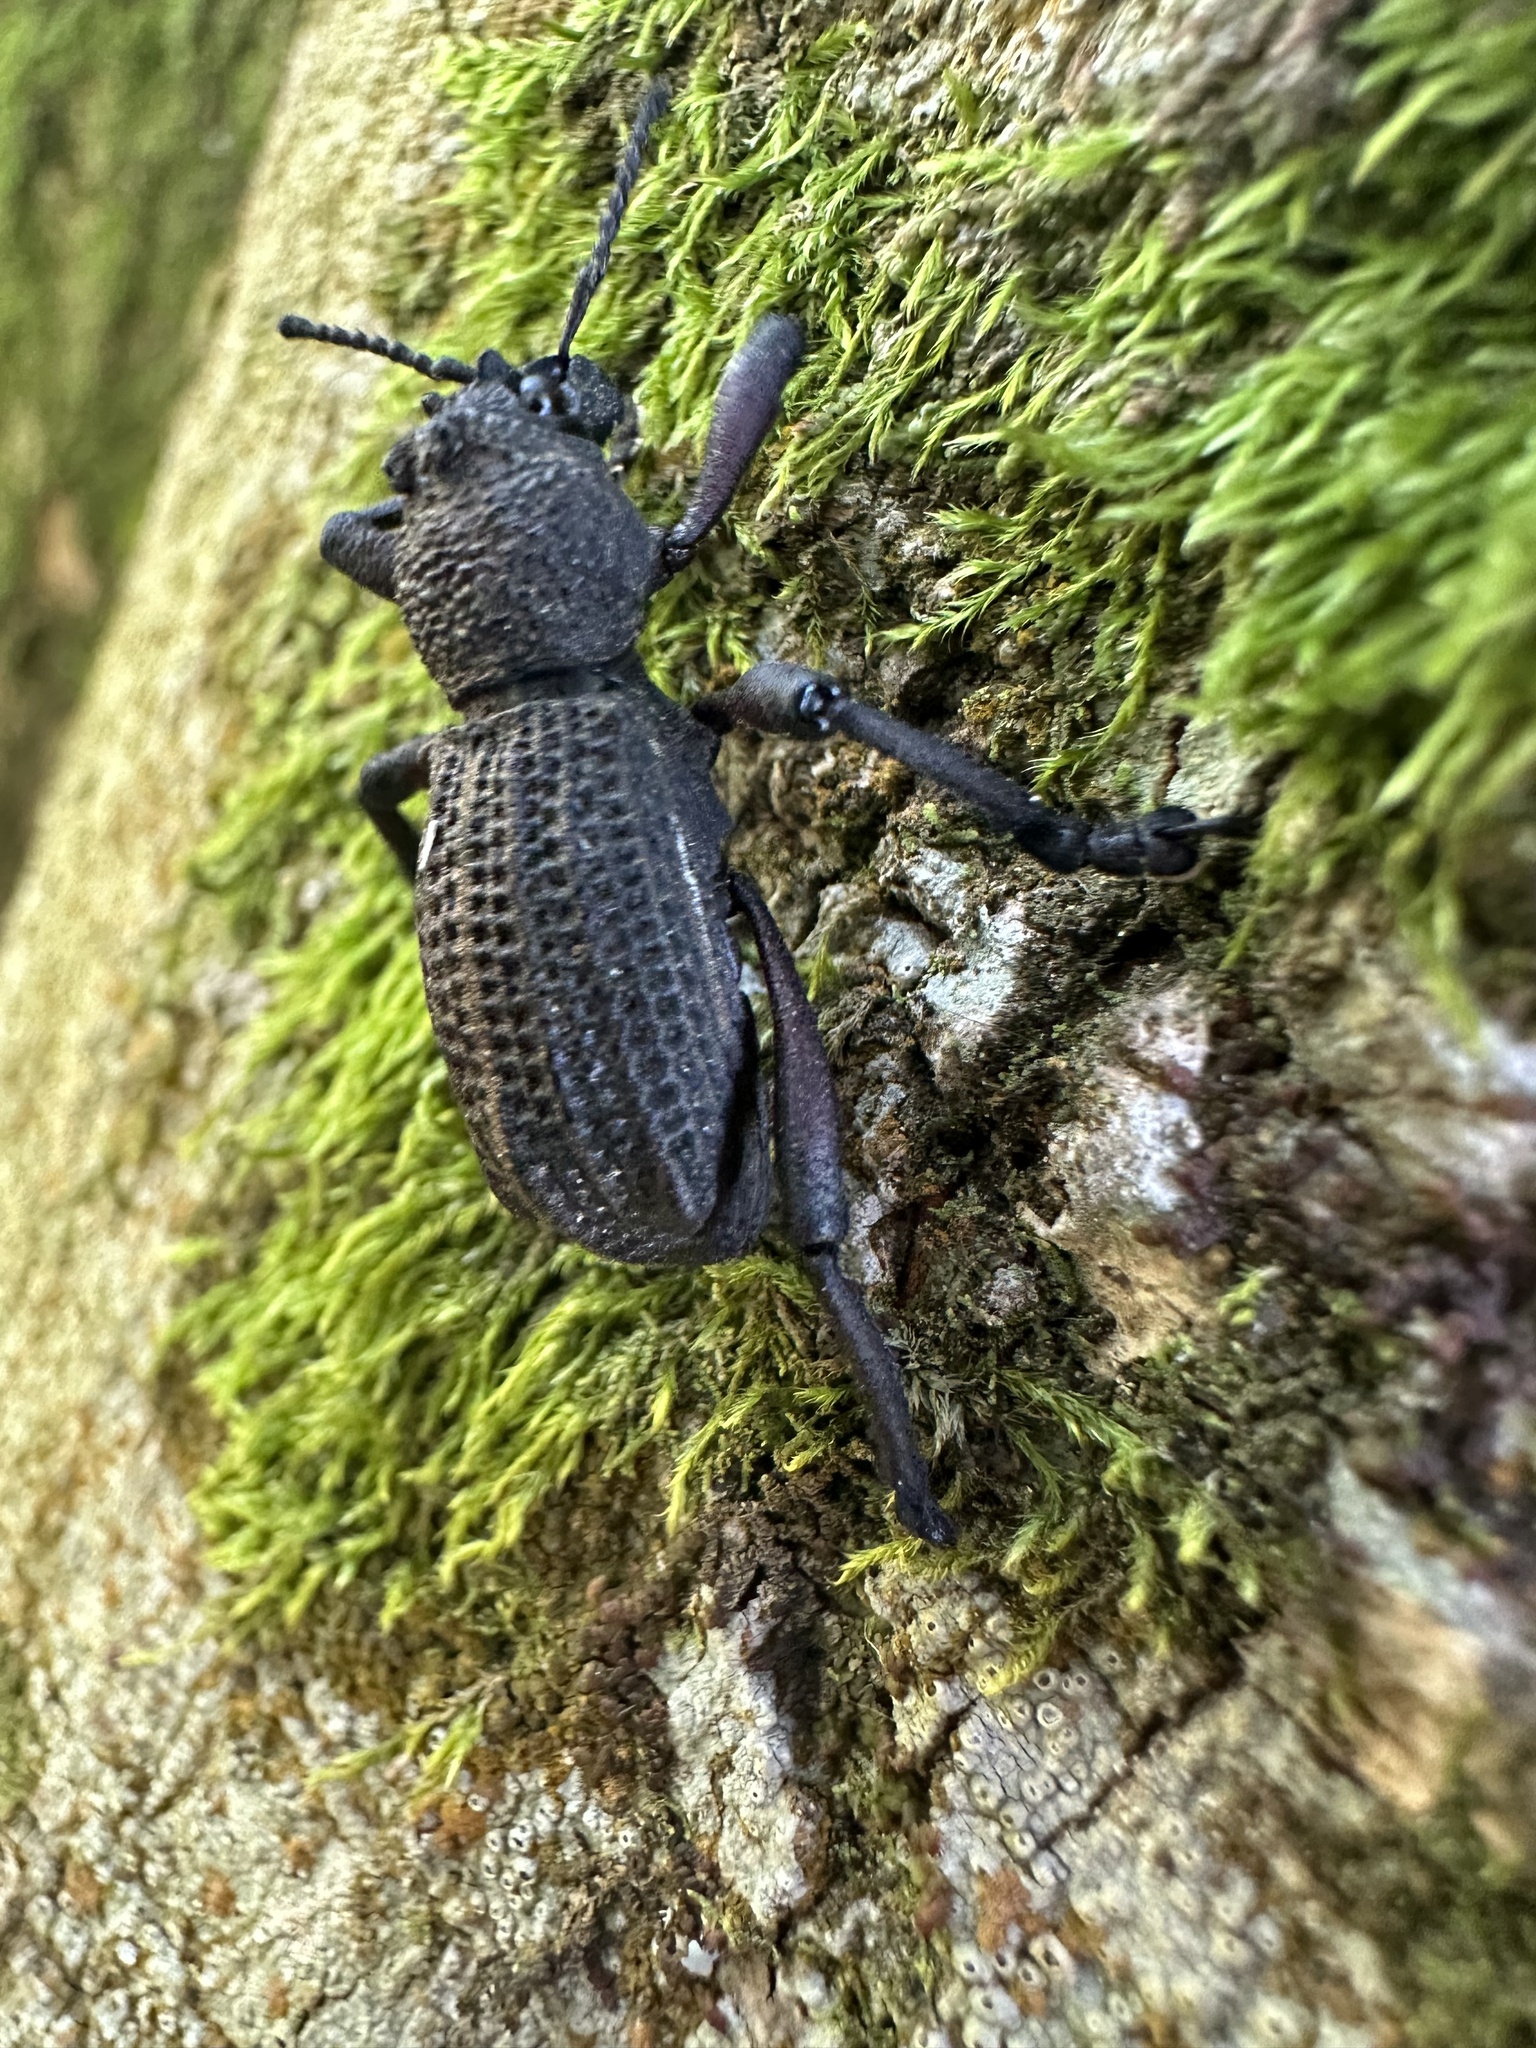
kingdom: Animalia
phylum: Arthropoda
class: Insecta
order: Coleoptera
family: Curculionidae
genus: Aegorhinus
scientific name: Aegorhinus
